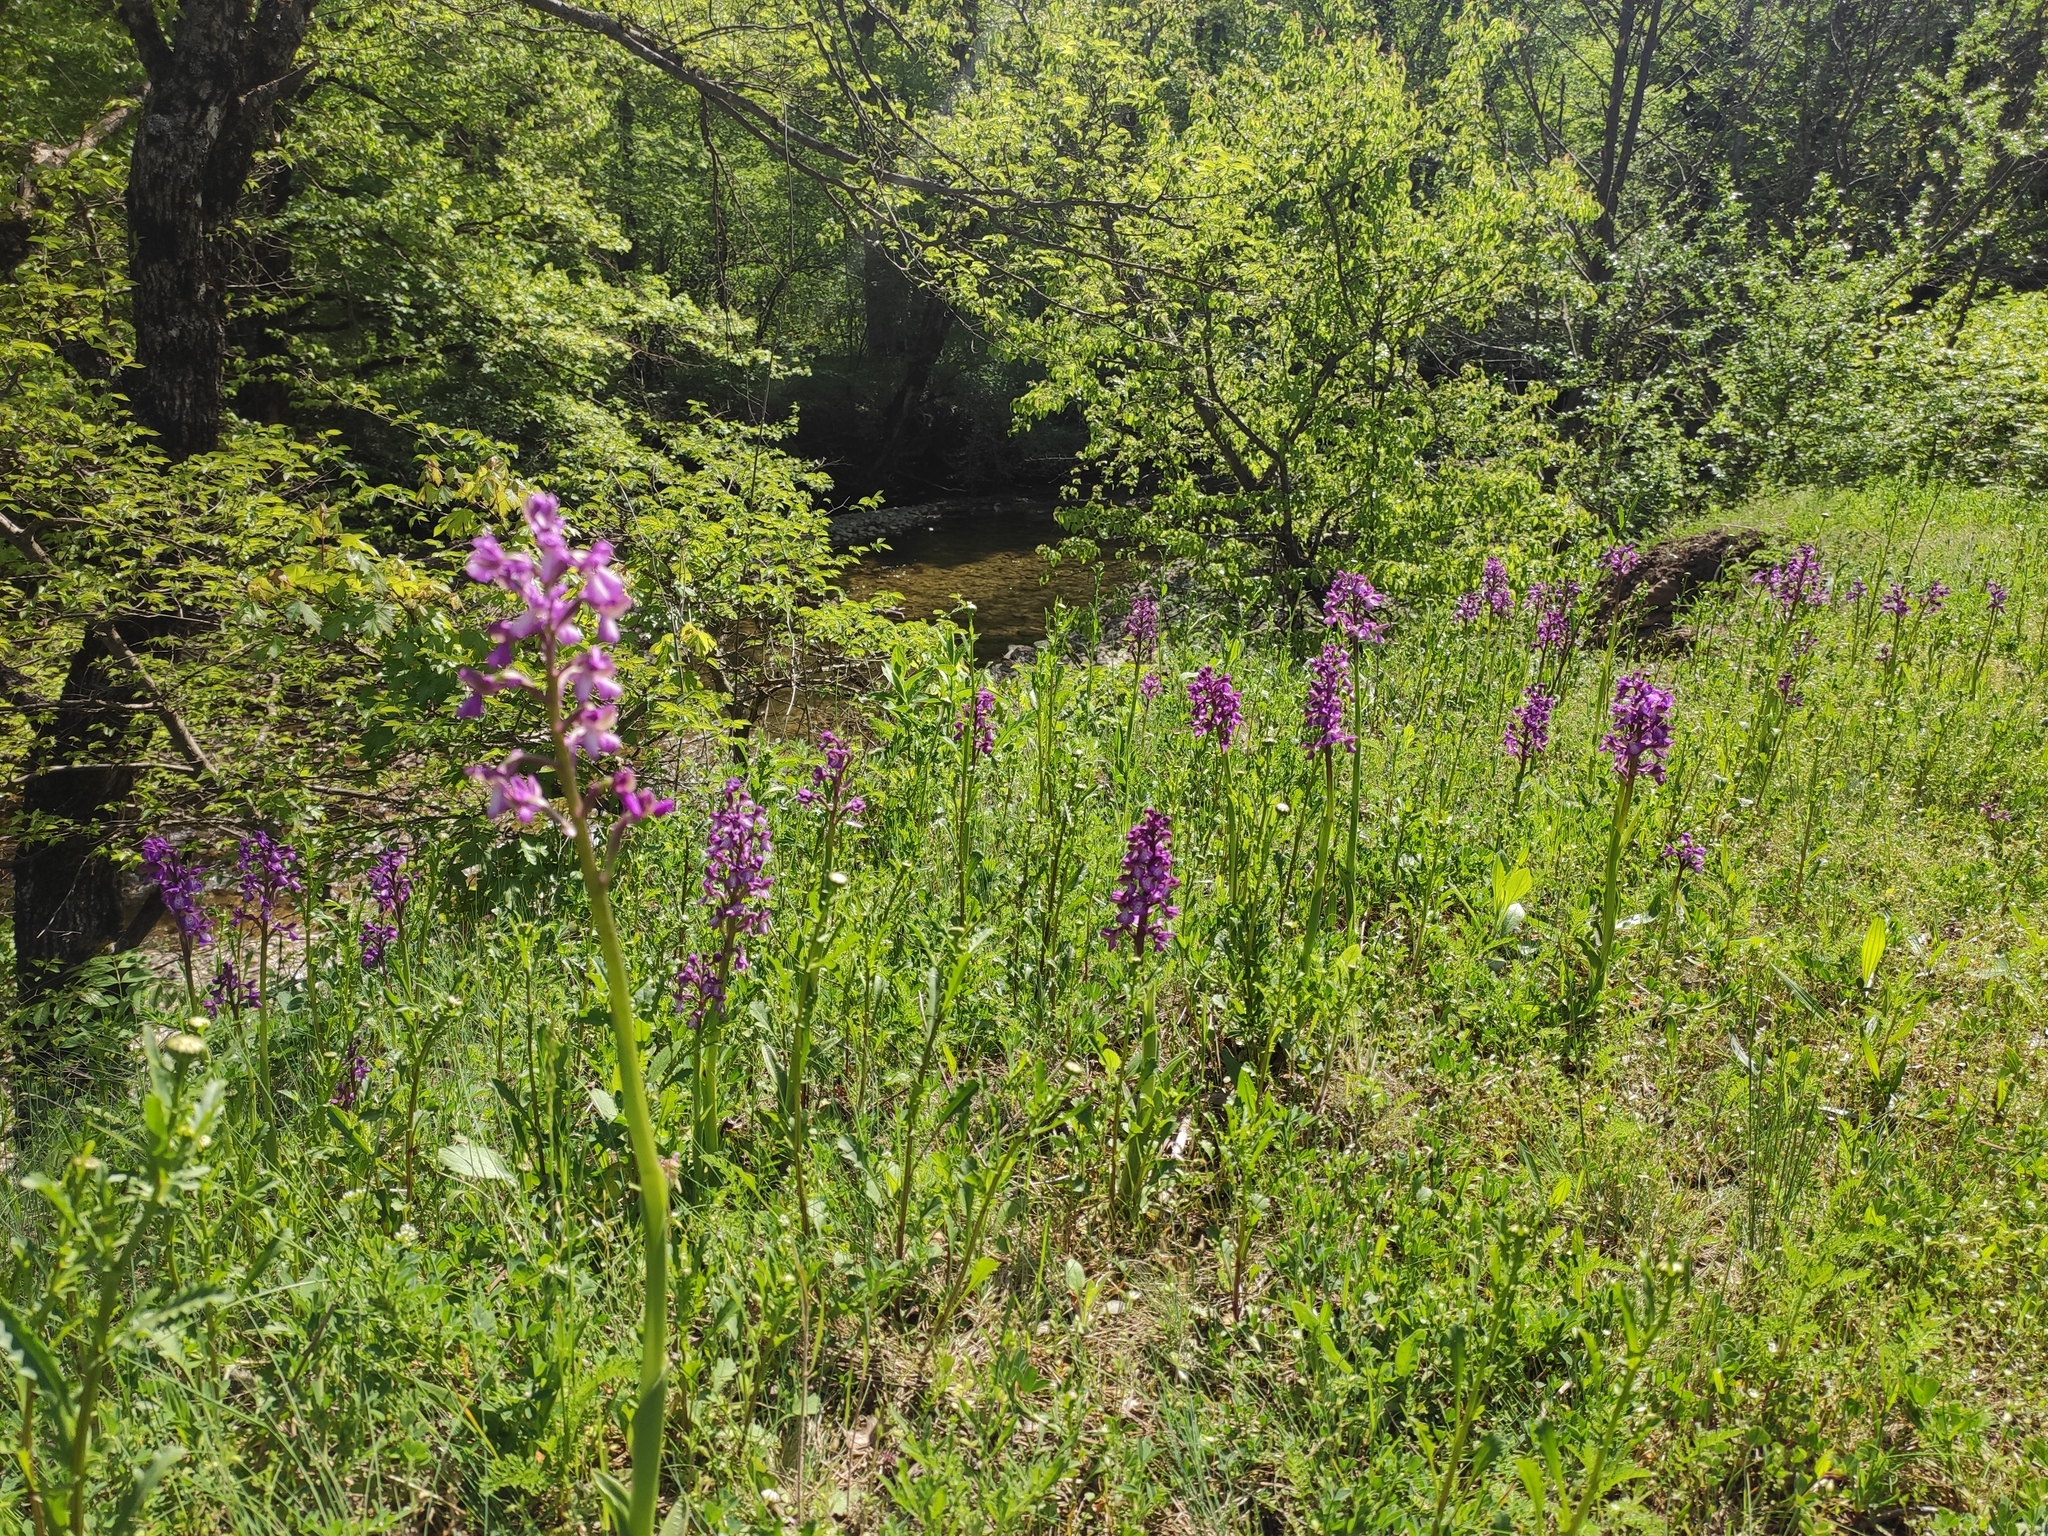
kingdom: Plantae
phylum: Tracheophyta
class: Liliopsida
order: Asparagales
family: Orchidaceae
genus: Anacamptis
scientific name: Anacamptis morio
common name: Green-winged orchid
